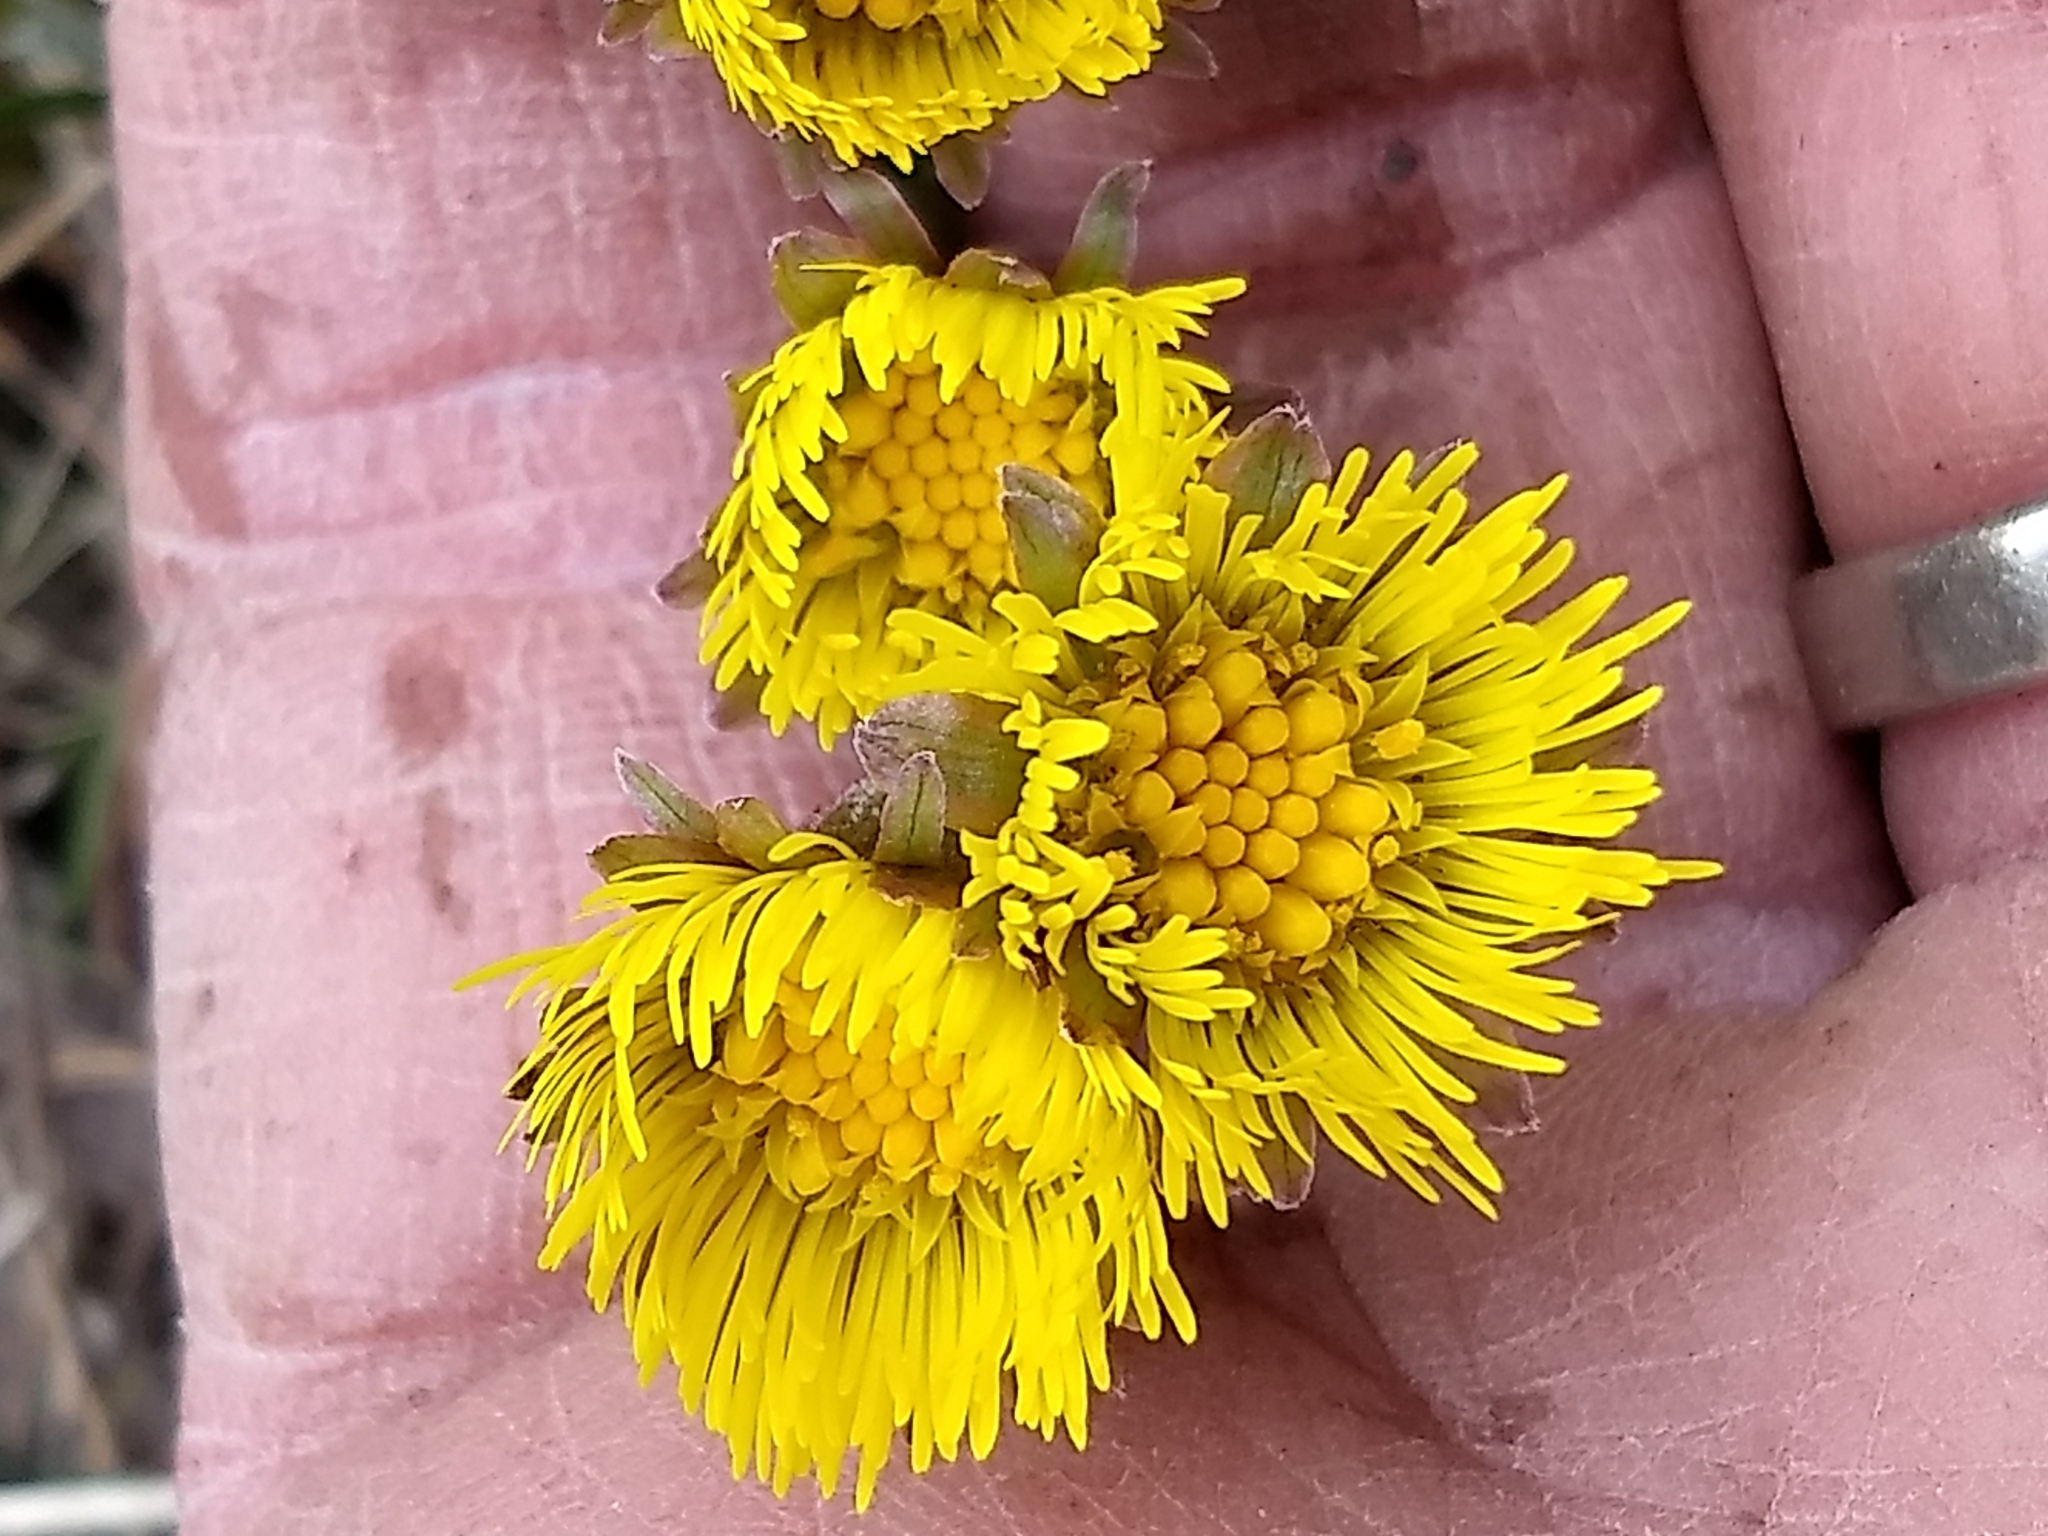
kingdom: Plantae
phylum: Tracheophyta
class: Magnoliopsida
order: Asterales
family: Asteraceae
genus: Tussilago
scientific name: Tussilago farfara
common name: Coltsfoot
